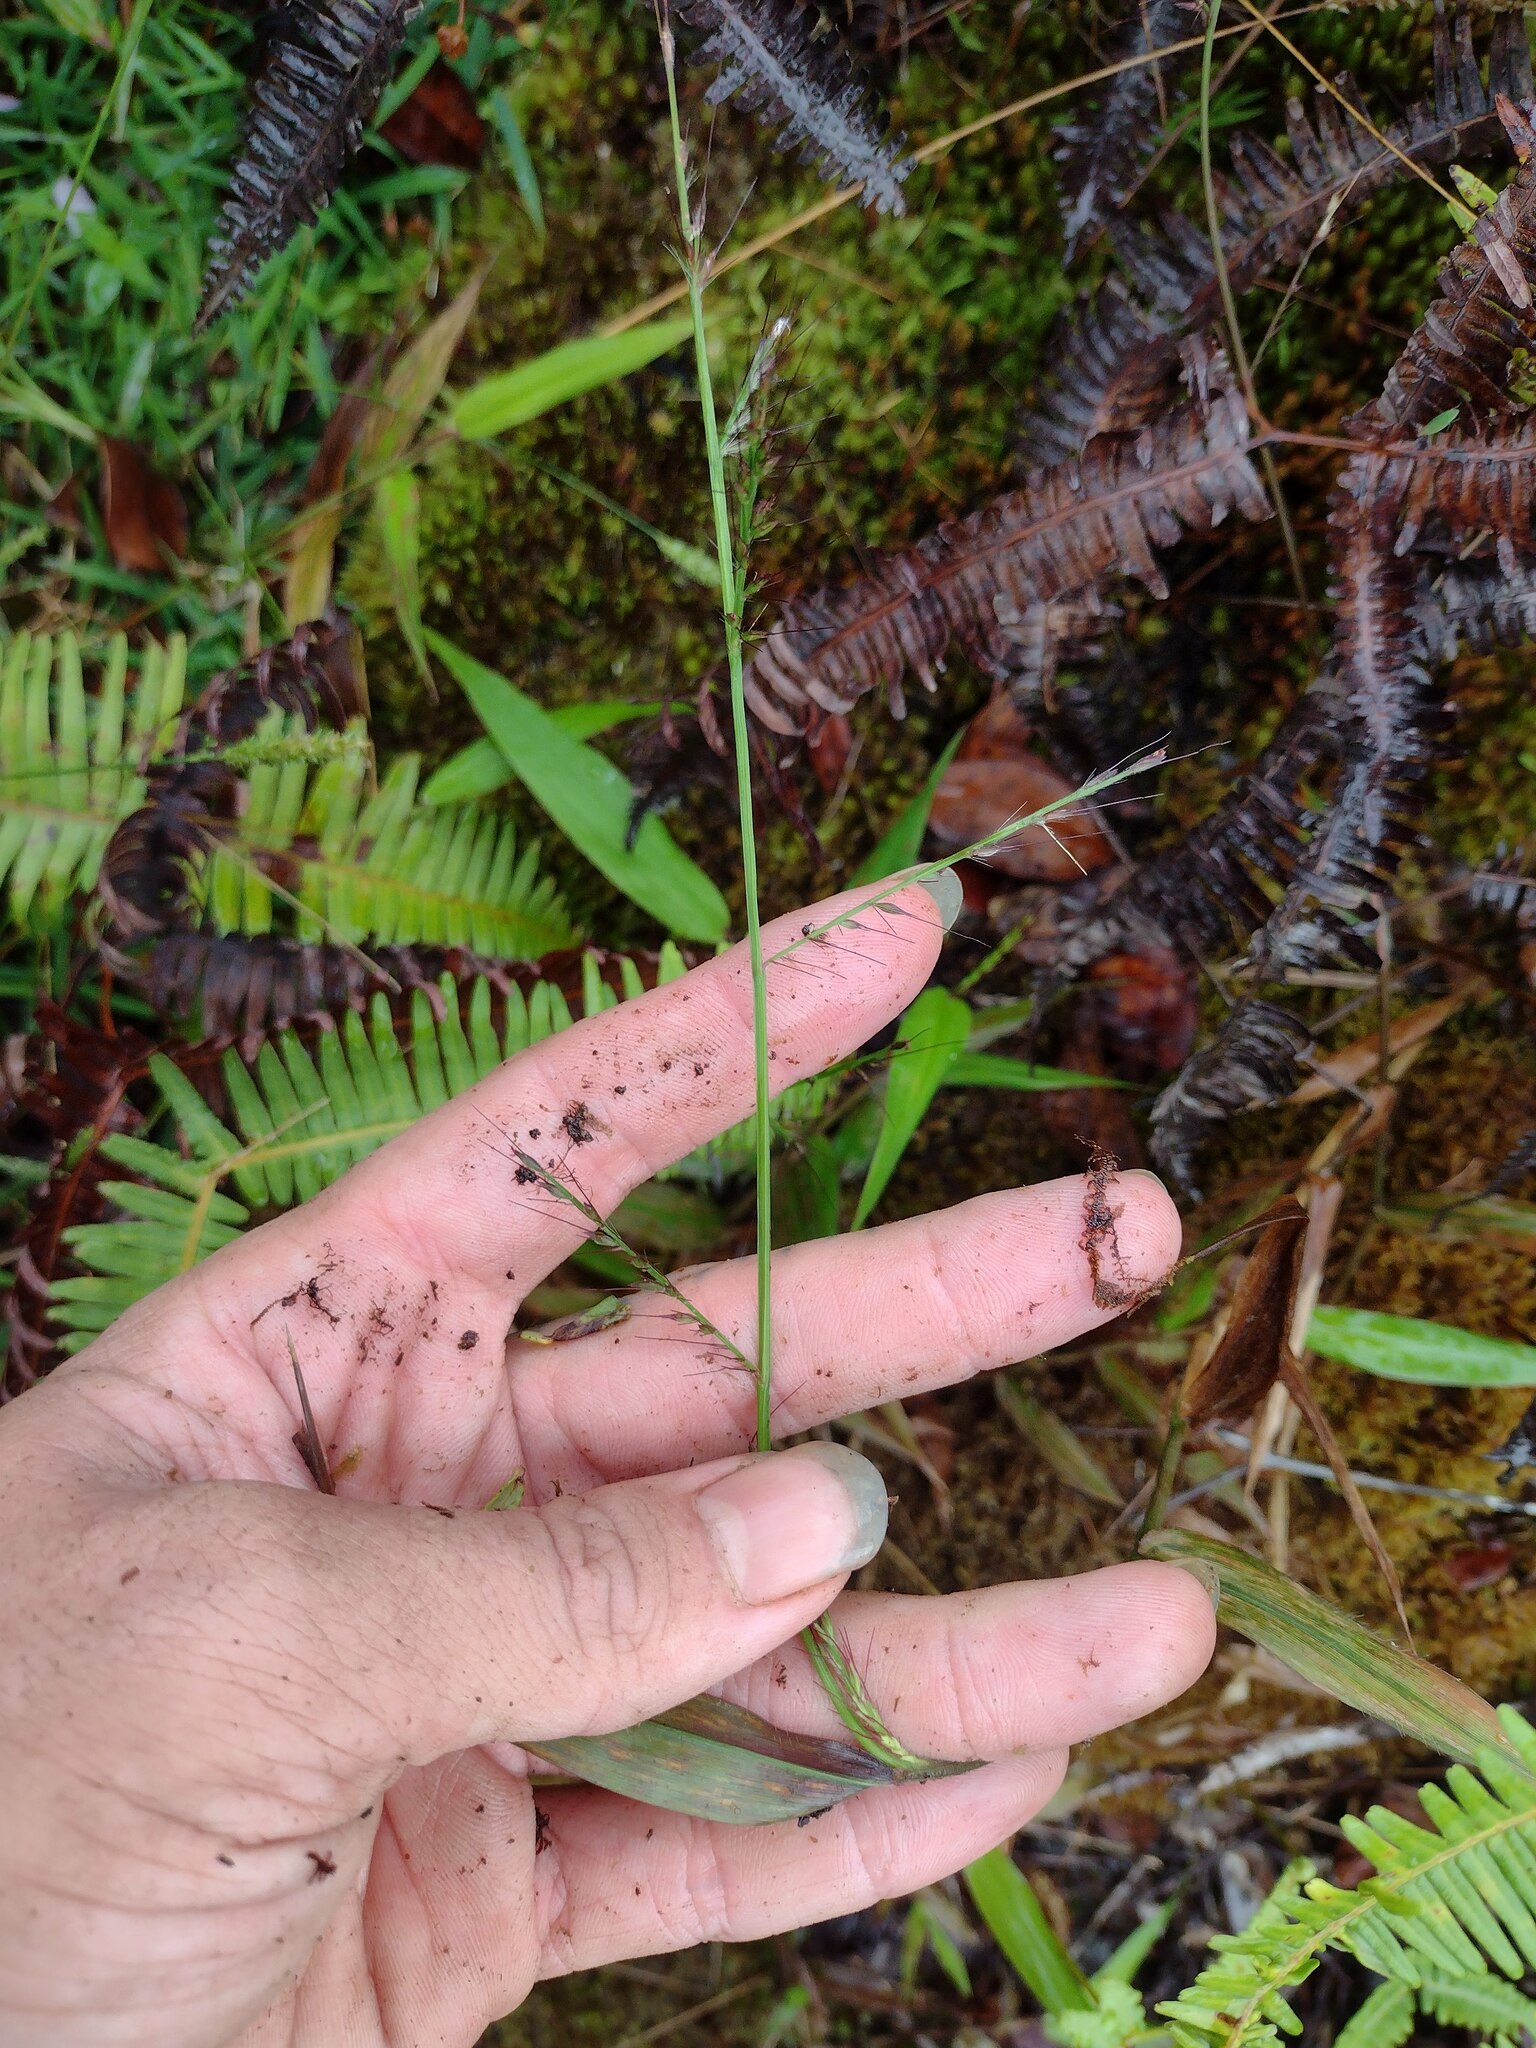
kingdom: Plantae
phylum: Tracheophyta
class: Liliopsida
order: Poales
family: Poaceae
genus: Oplismenus
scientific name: Oplismenus compositus
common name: Running mountain grass
